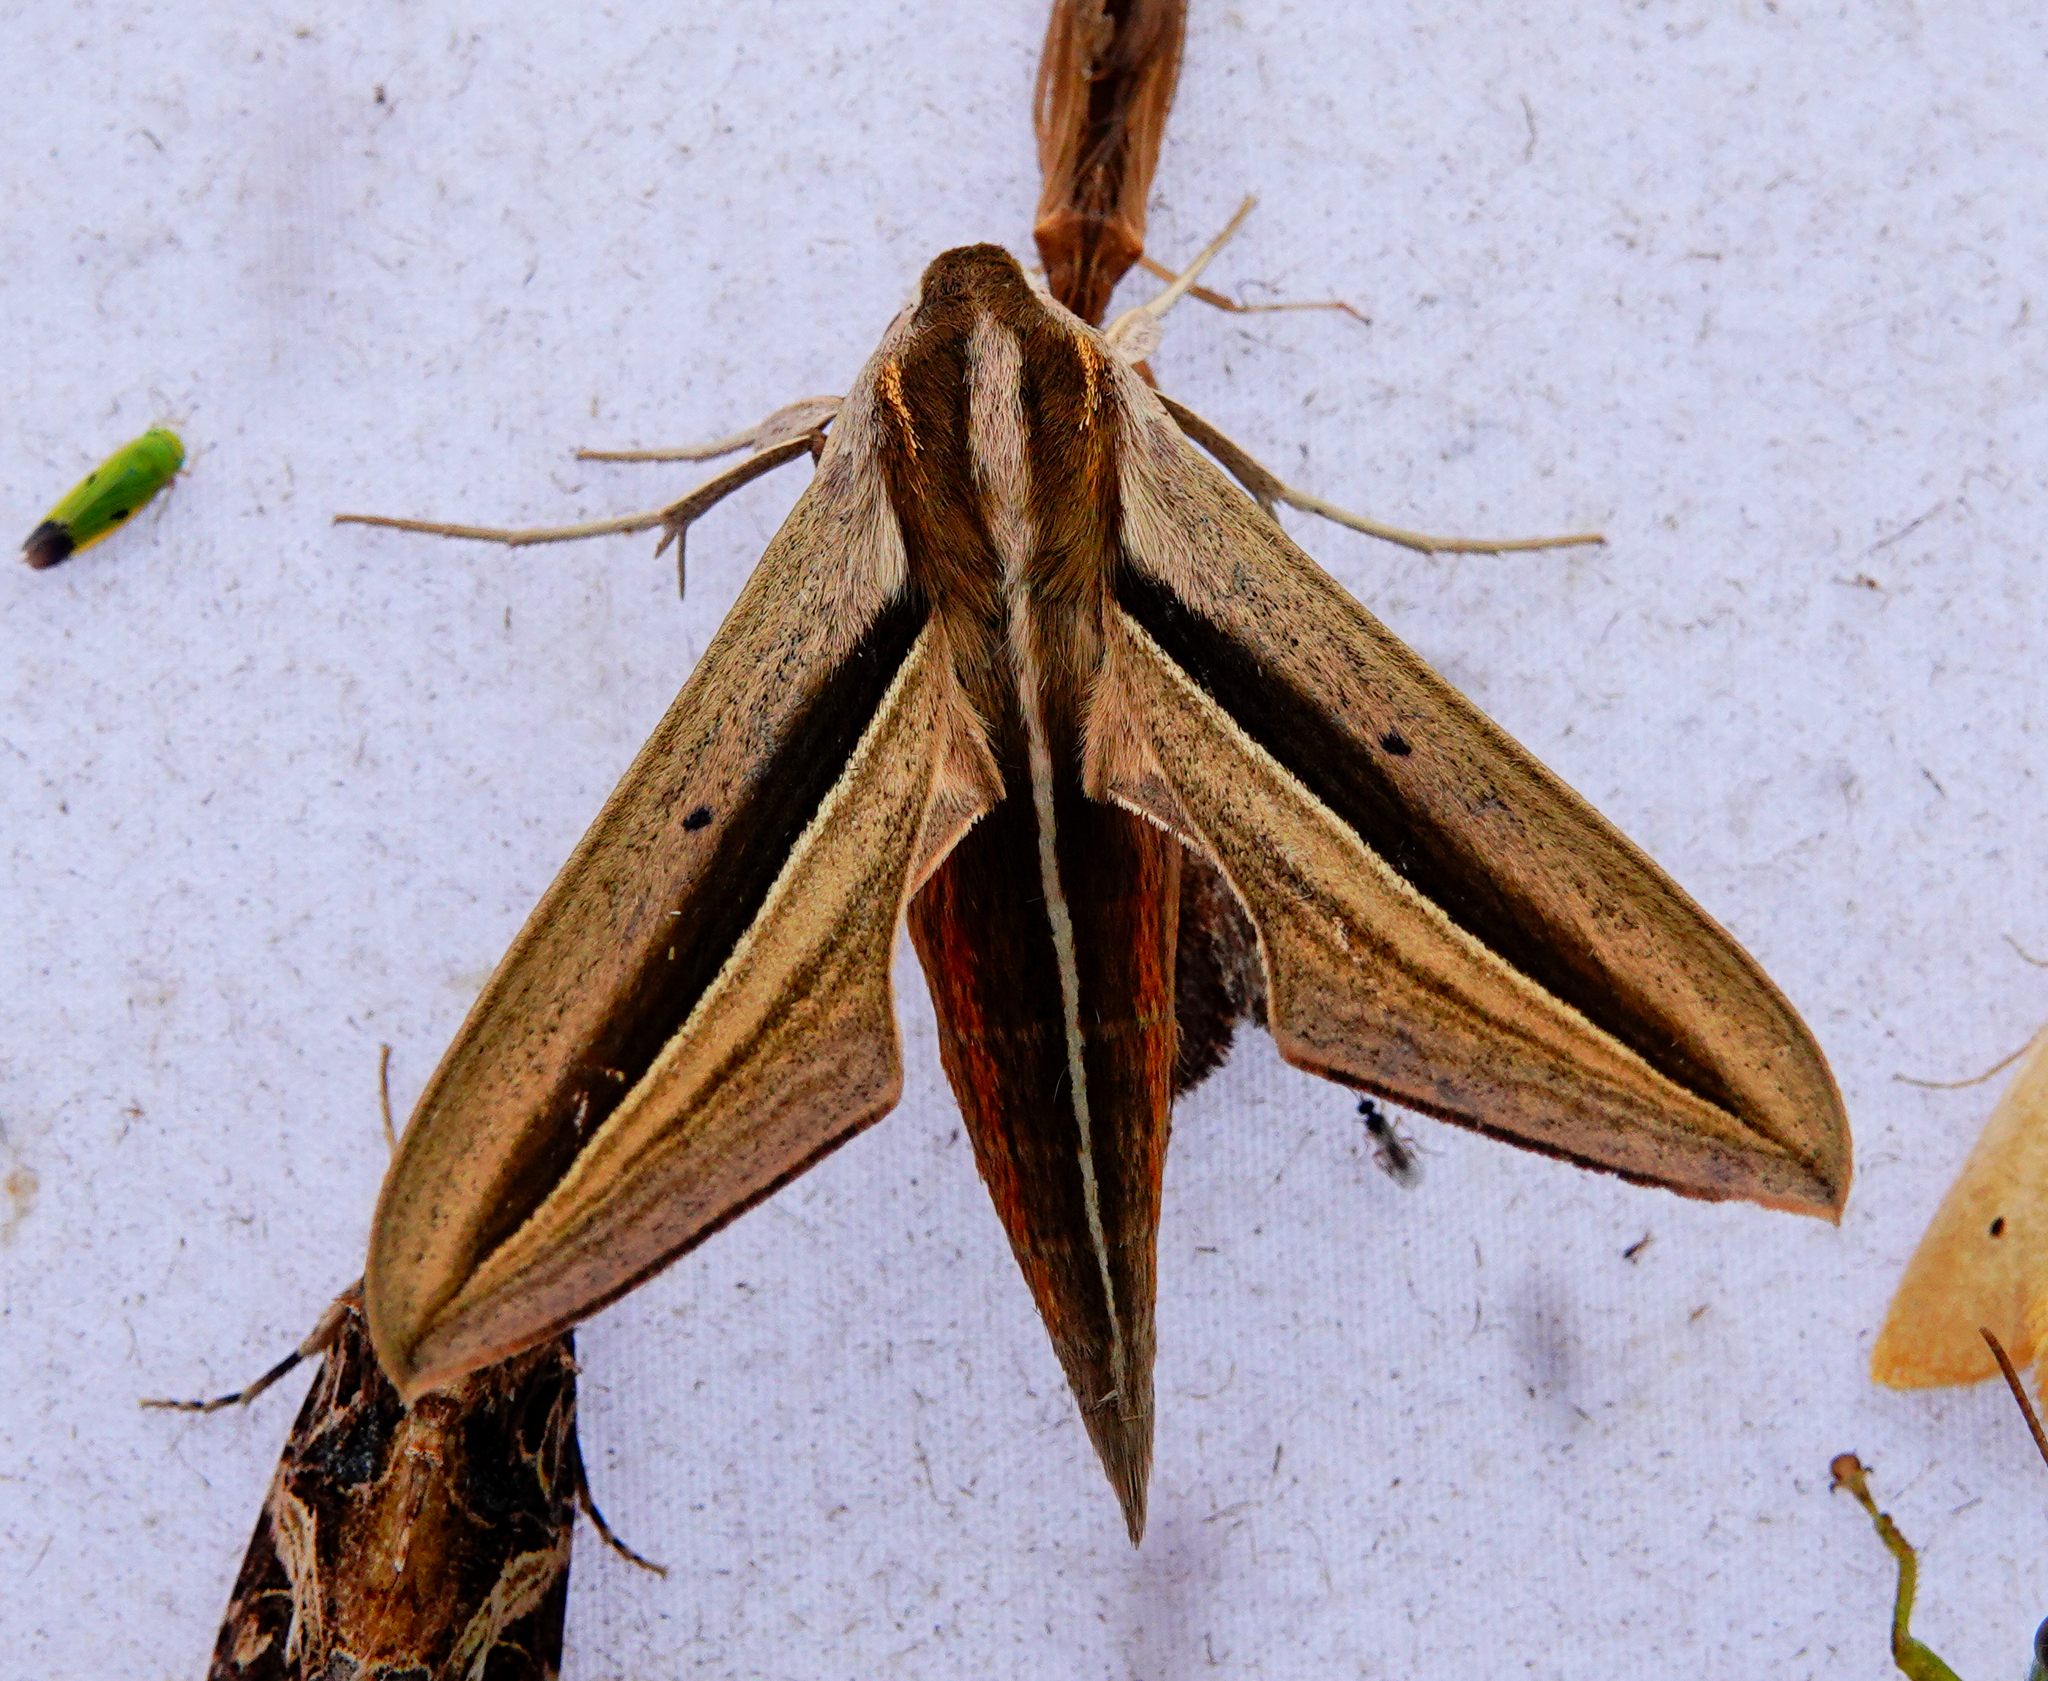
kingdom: Animalia
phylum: Arthropoda
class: Insecta
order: Lepidoptera
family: Sphingidae
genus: Theretra
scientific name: Theretra silhetensis
